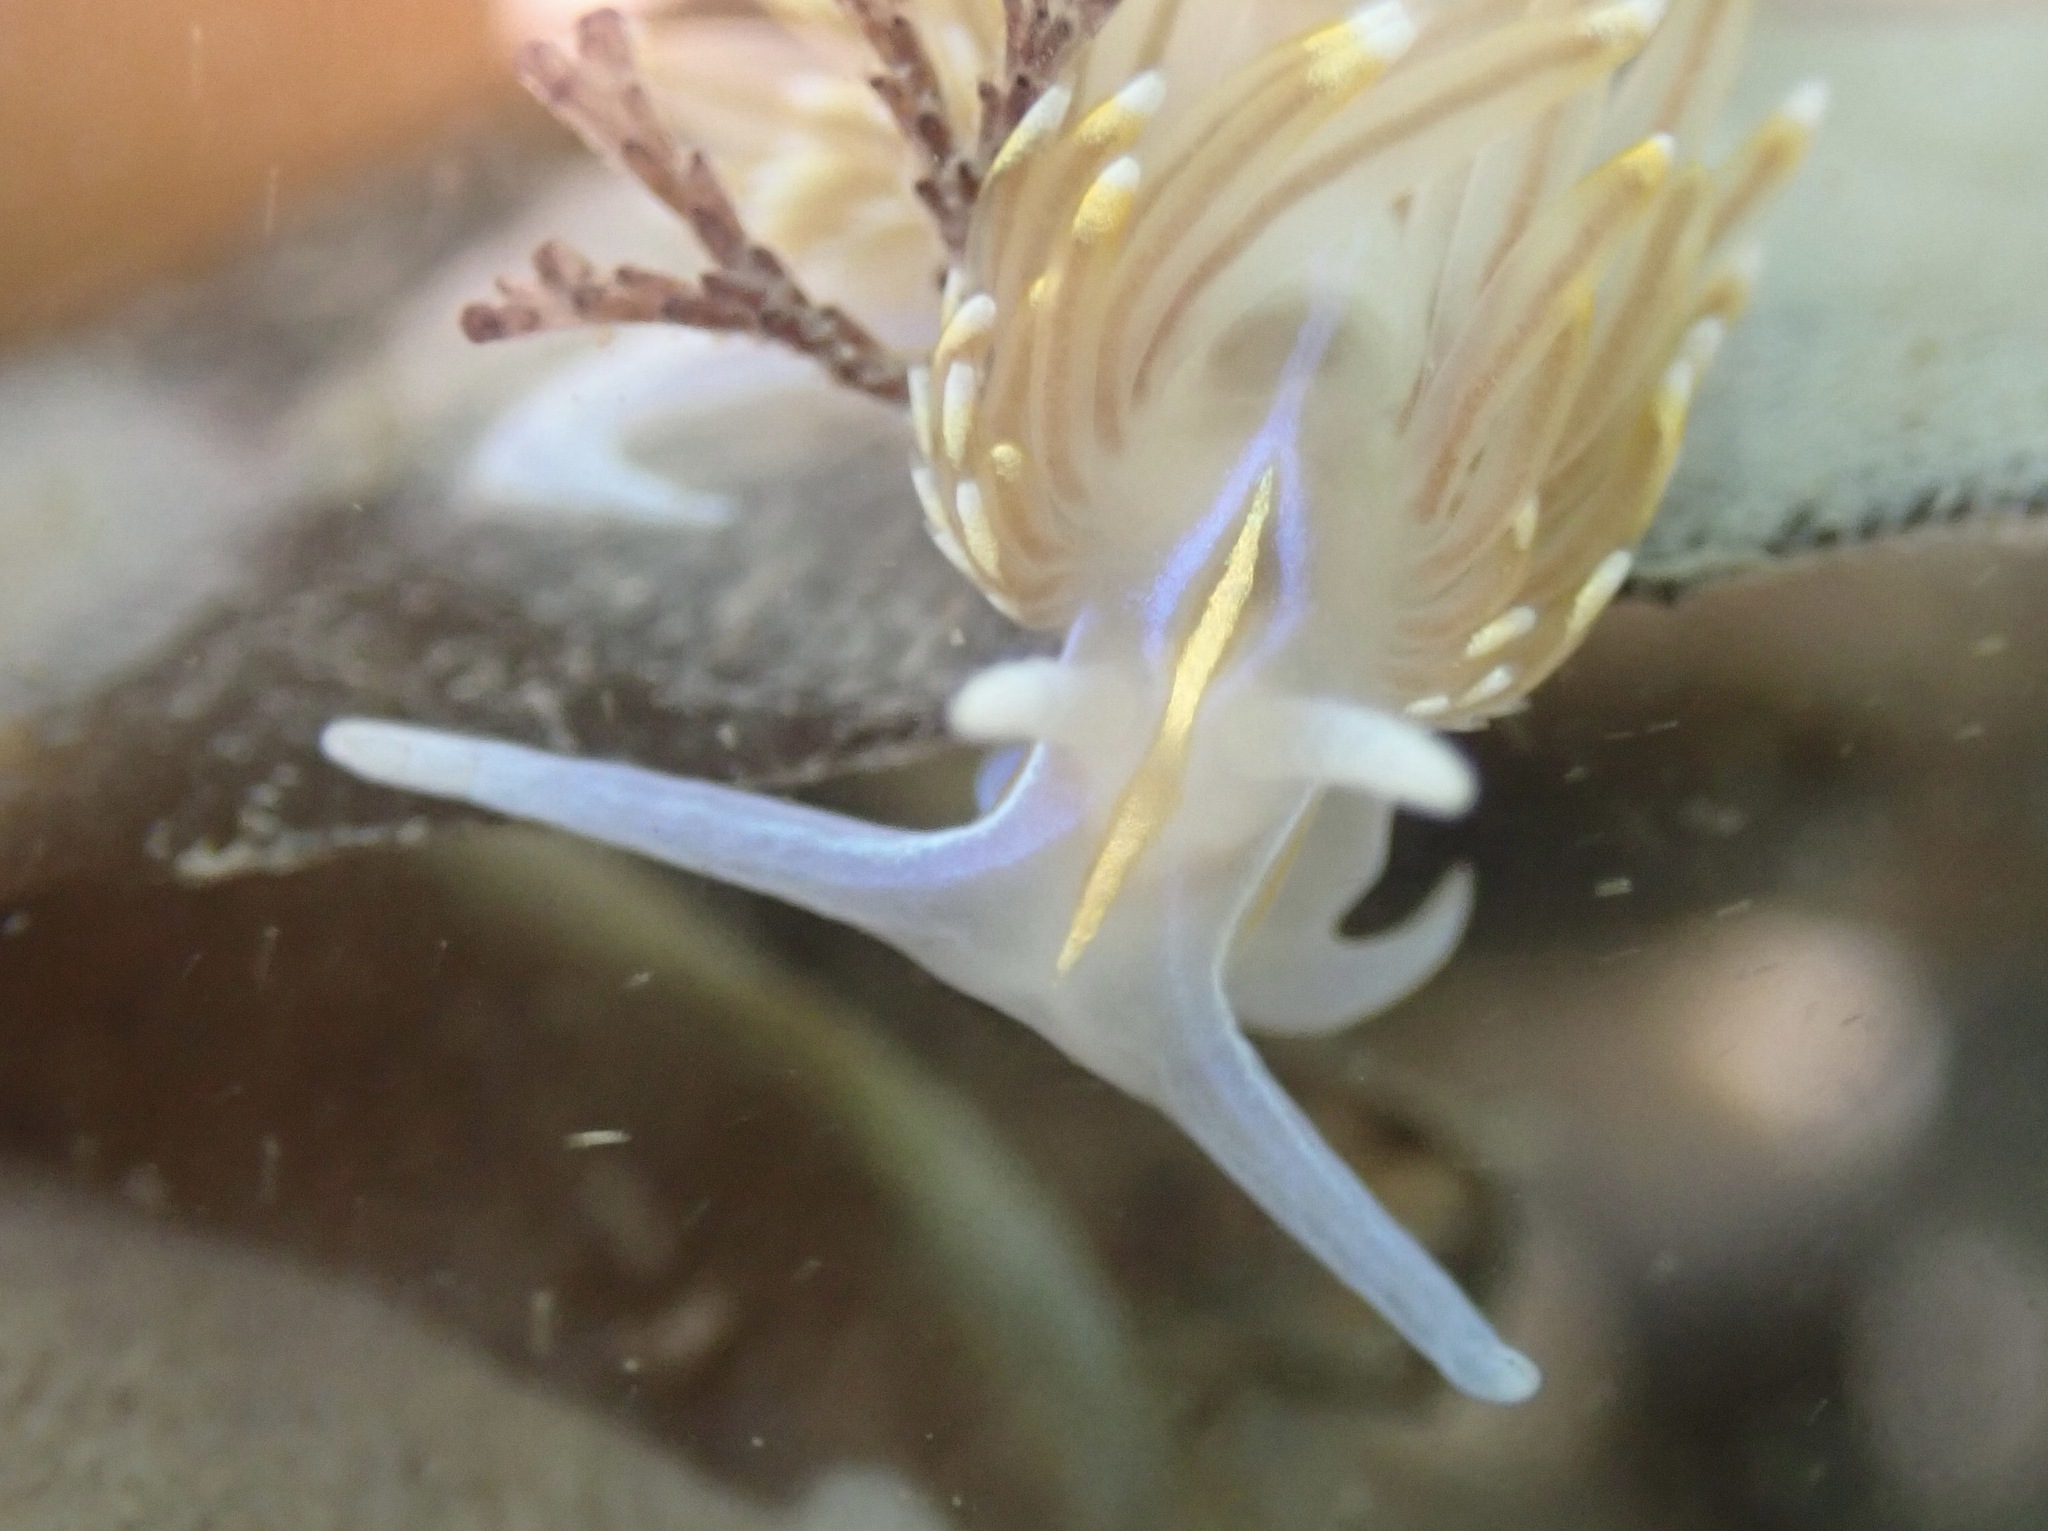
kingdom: Animalia
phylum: Mollusca
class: Gastropoda
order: Nudibranchia
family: Myrrhinidae
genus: Hermissenda
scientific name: Hermissenda opalescens
